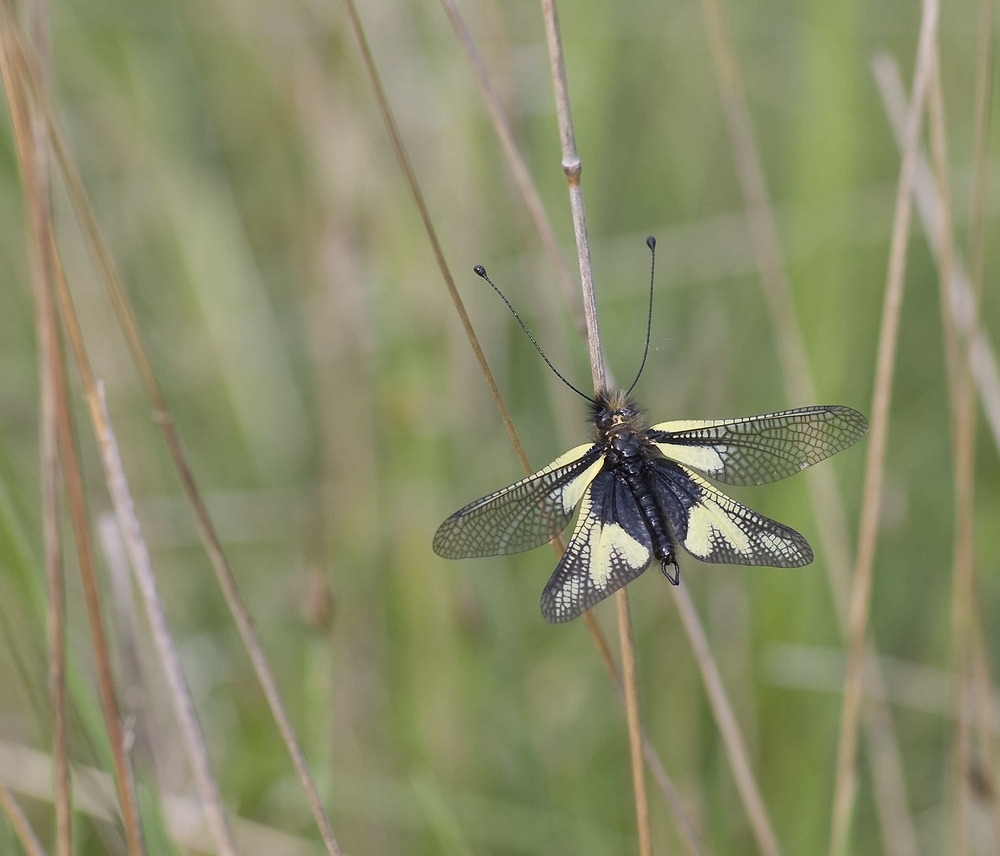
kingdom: Animalia
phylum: Arthropoda
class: Insecta
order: Neuroptera
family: Ascalaphidae
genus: Libelloides
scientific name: Libelloides coccajus
